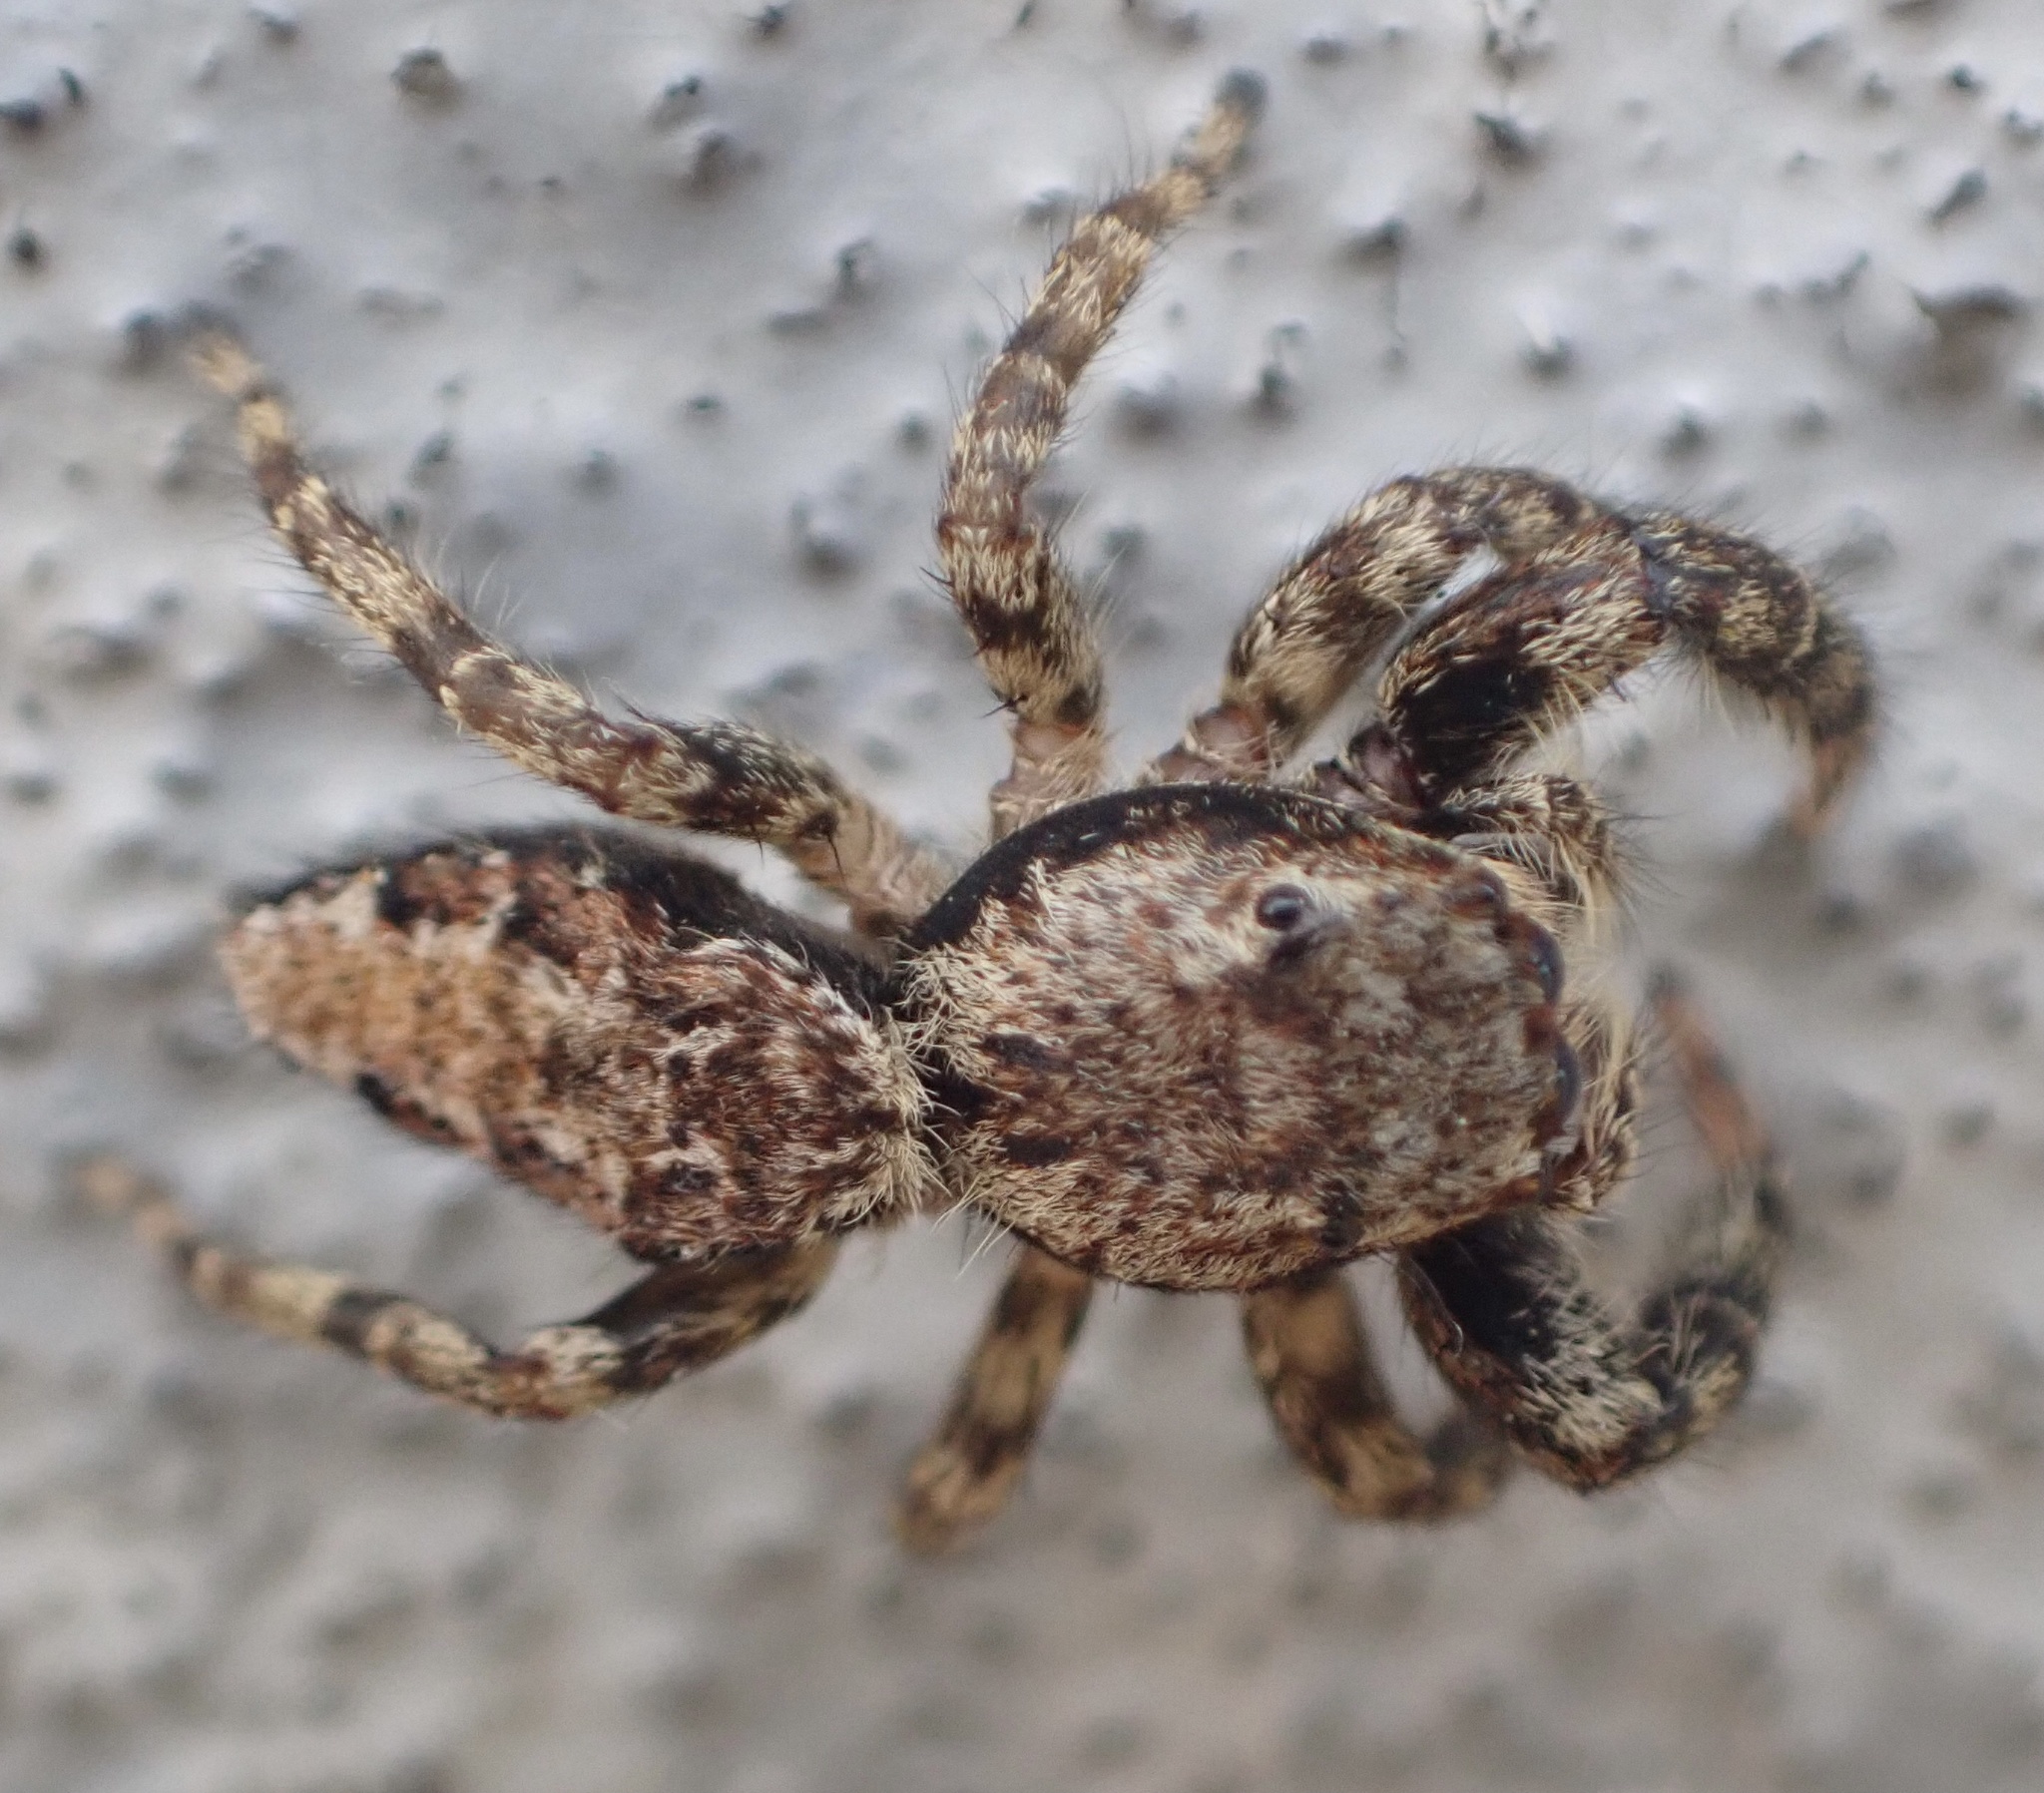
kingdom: Animalia
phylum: Arthropoda
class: Arachnida
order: Araneae
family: Salticidae
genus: Marpissa
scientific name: Marpissa muscosa
